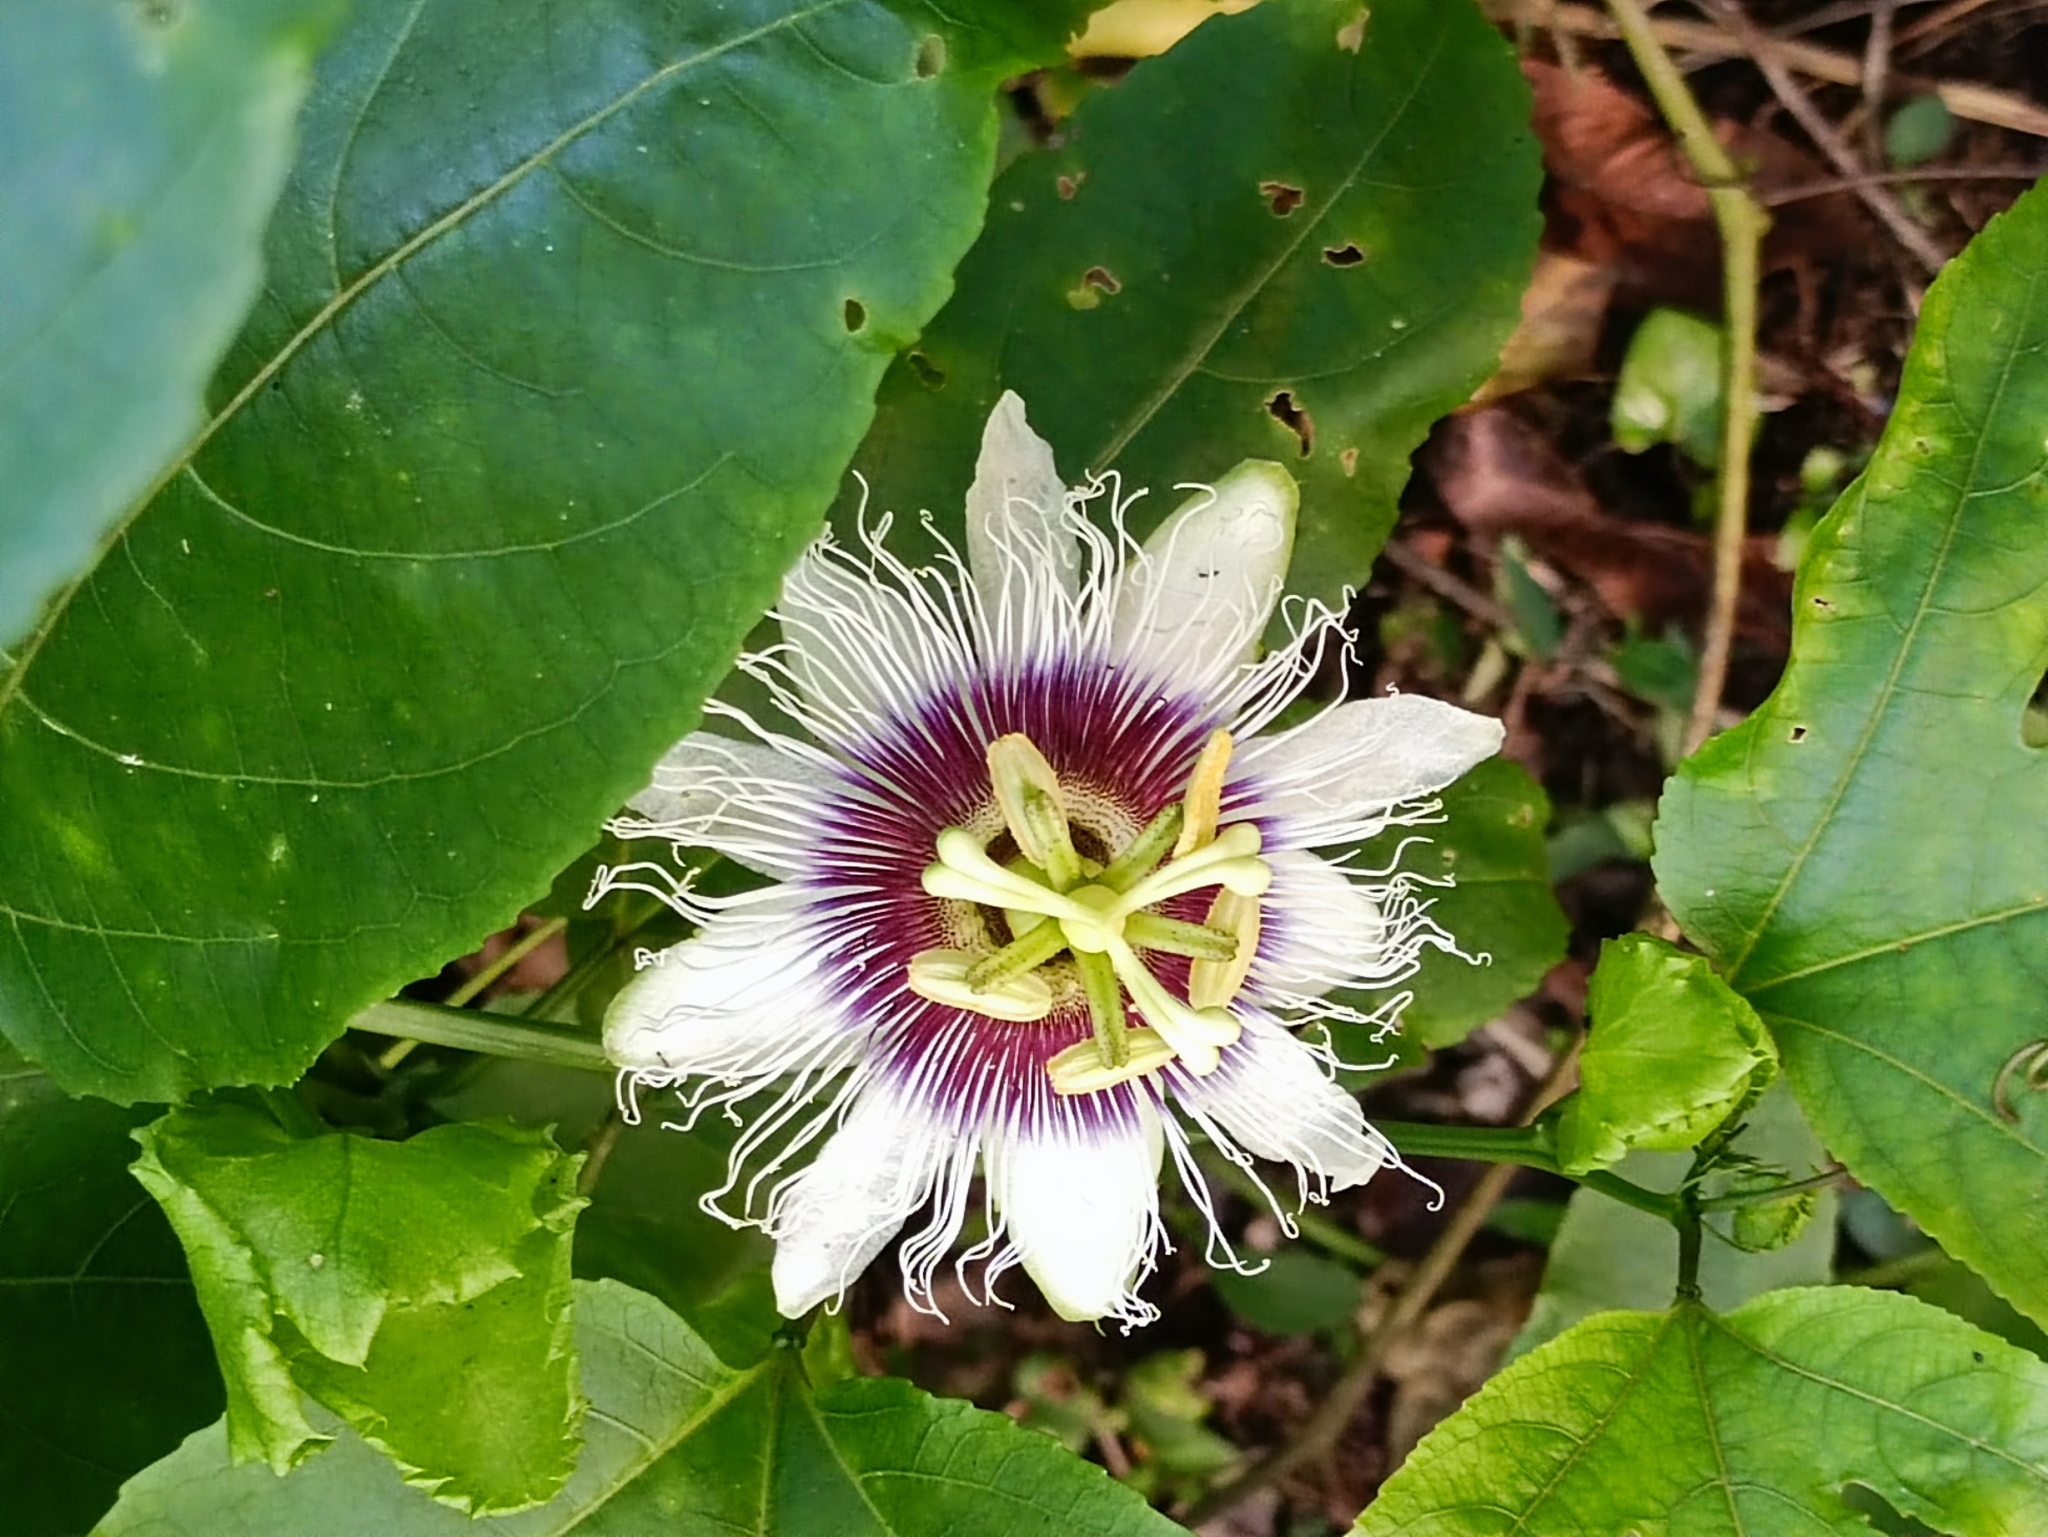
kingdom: Plantae
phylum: Tracheophyta
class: Magnoliopsida
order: Malpighiales
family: Passifloraceae
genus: Passiflora
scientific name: Passiflora edulis
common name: Purple granadilla
